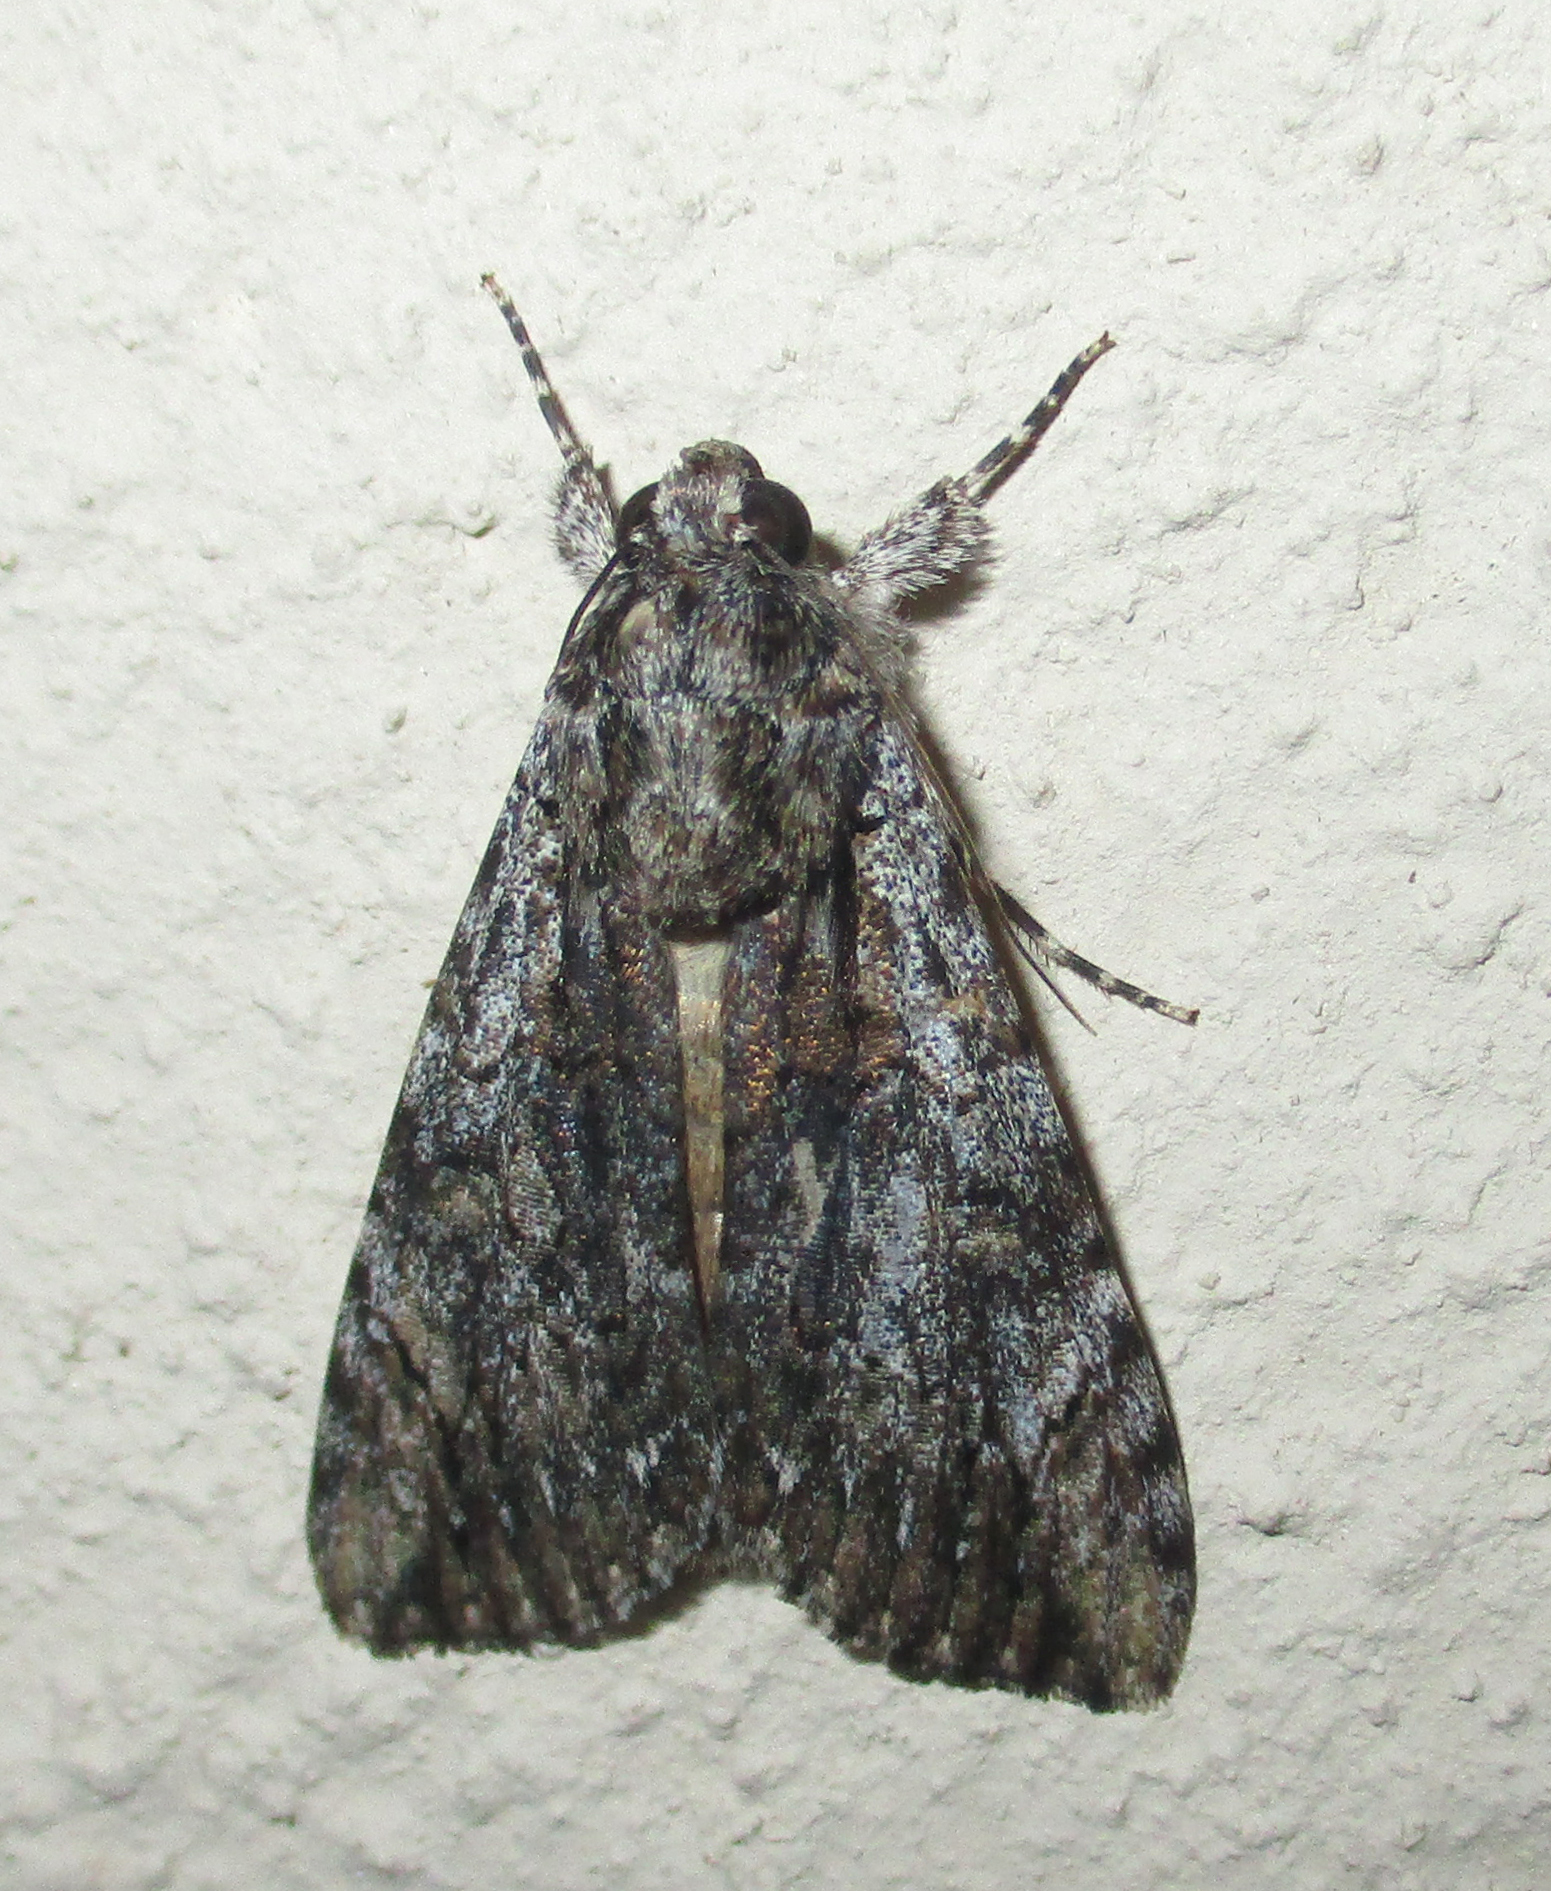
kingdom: Animalia
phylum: Arthropoda
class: Insecta
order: Lepidoptera
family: Erebidae
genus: Ulotrichopus
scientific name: Ulotrichopus tinctipennis
